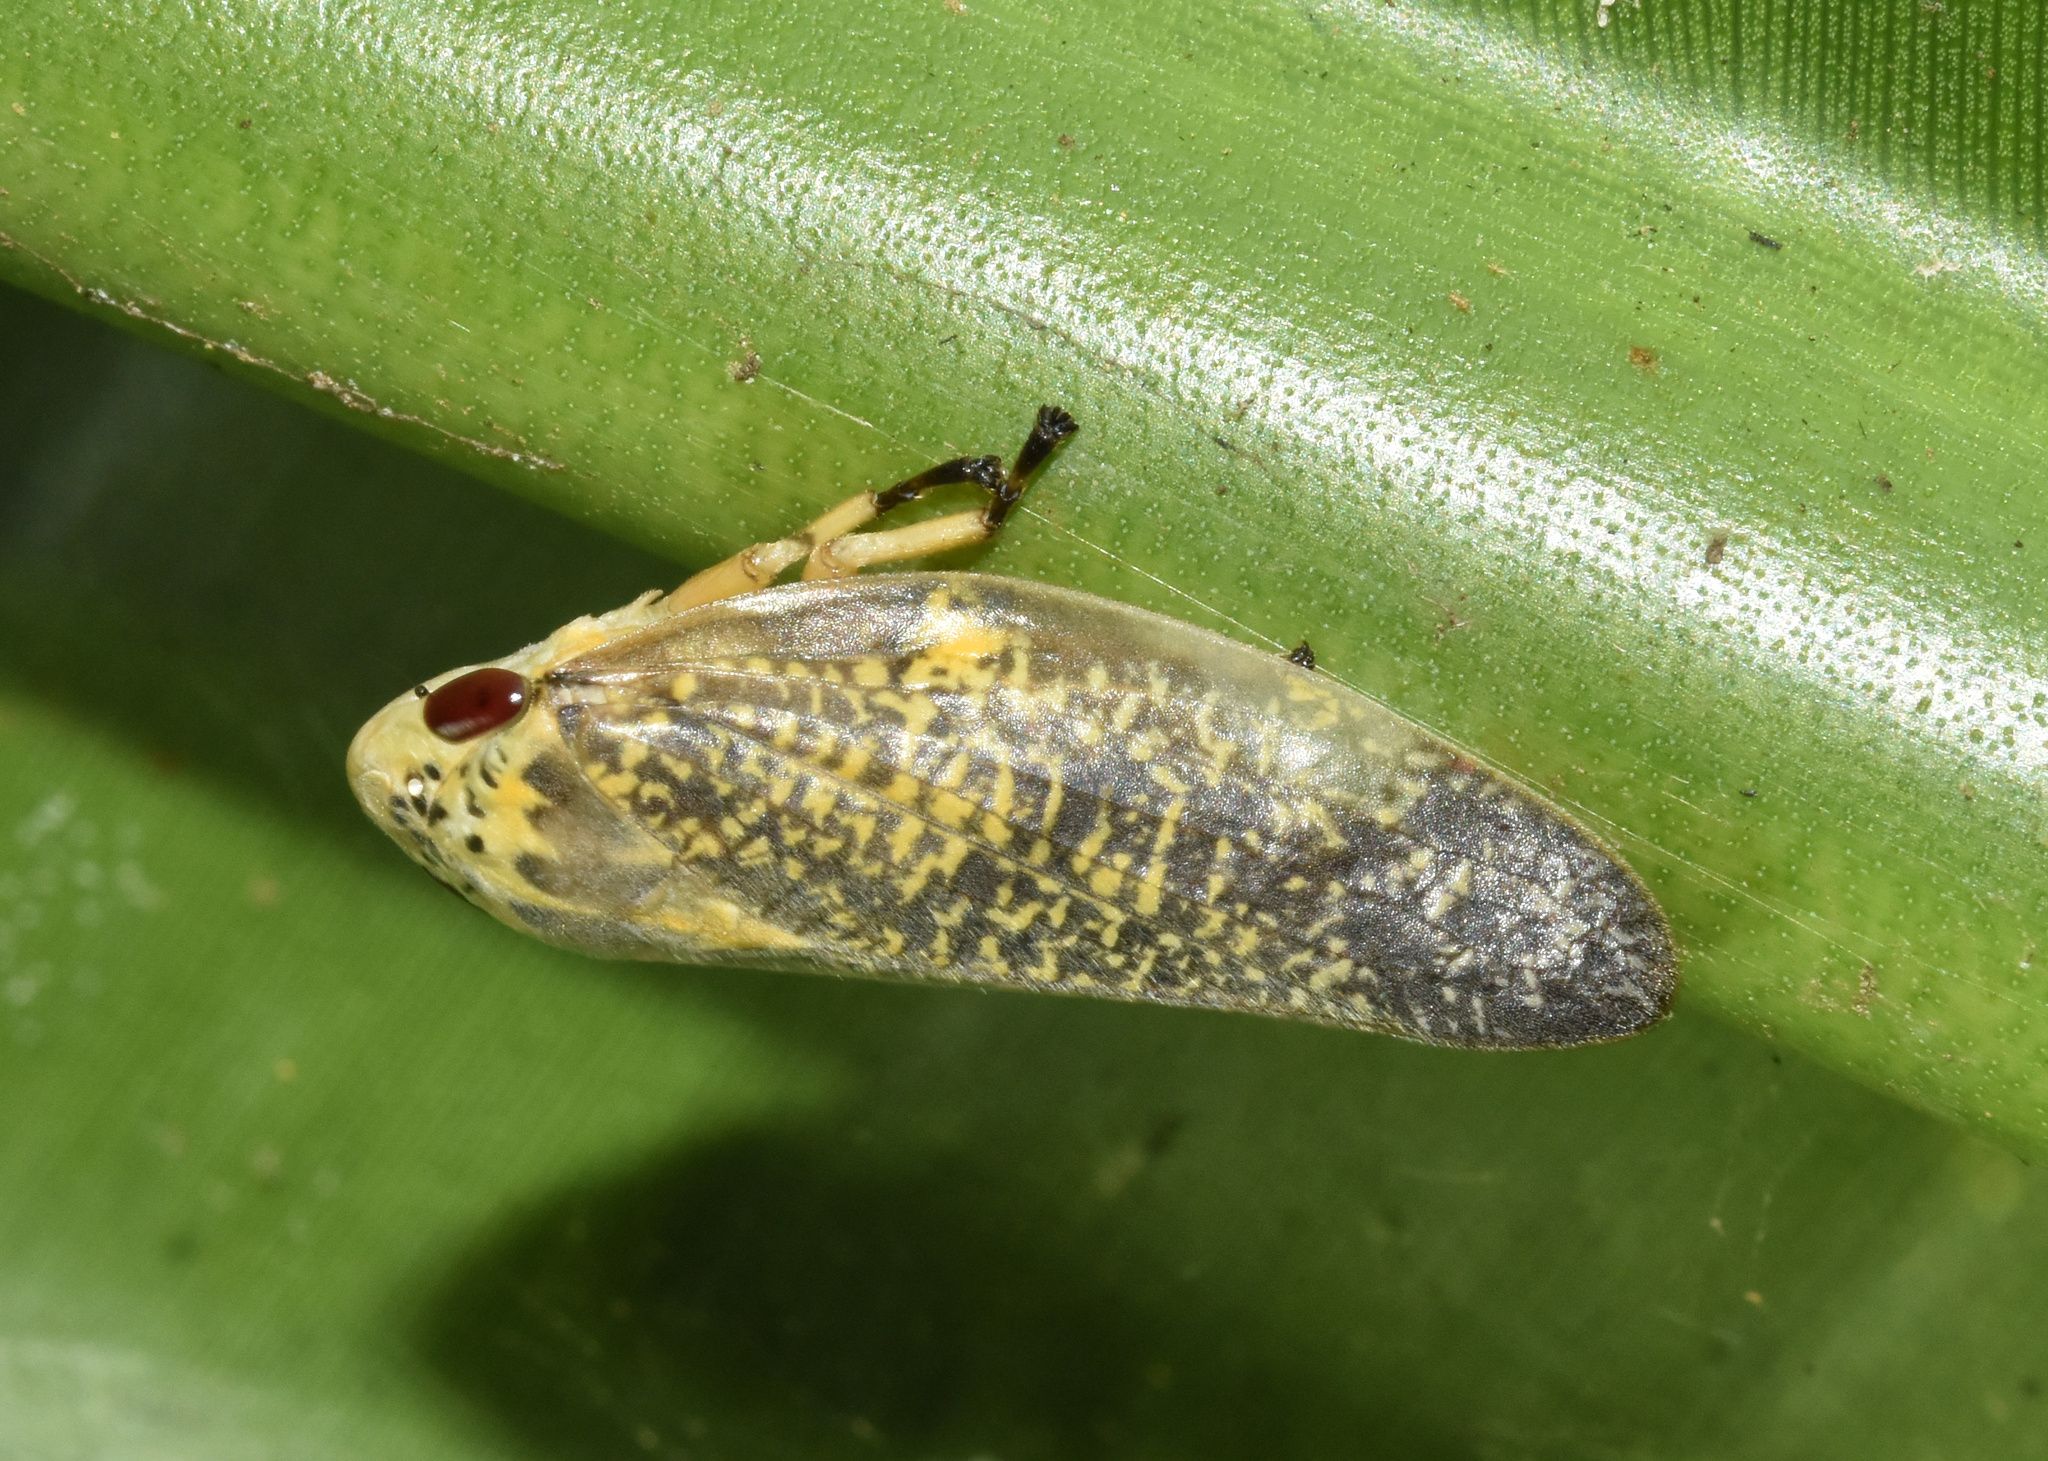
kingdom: Animalia
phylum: Arthropoda
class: Insecta
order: Hemiptera
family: Aphrophoridae
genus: Ptyelus
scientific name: Ptyelus grossus
